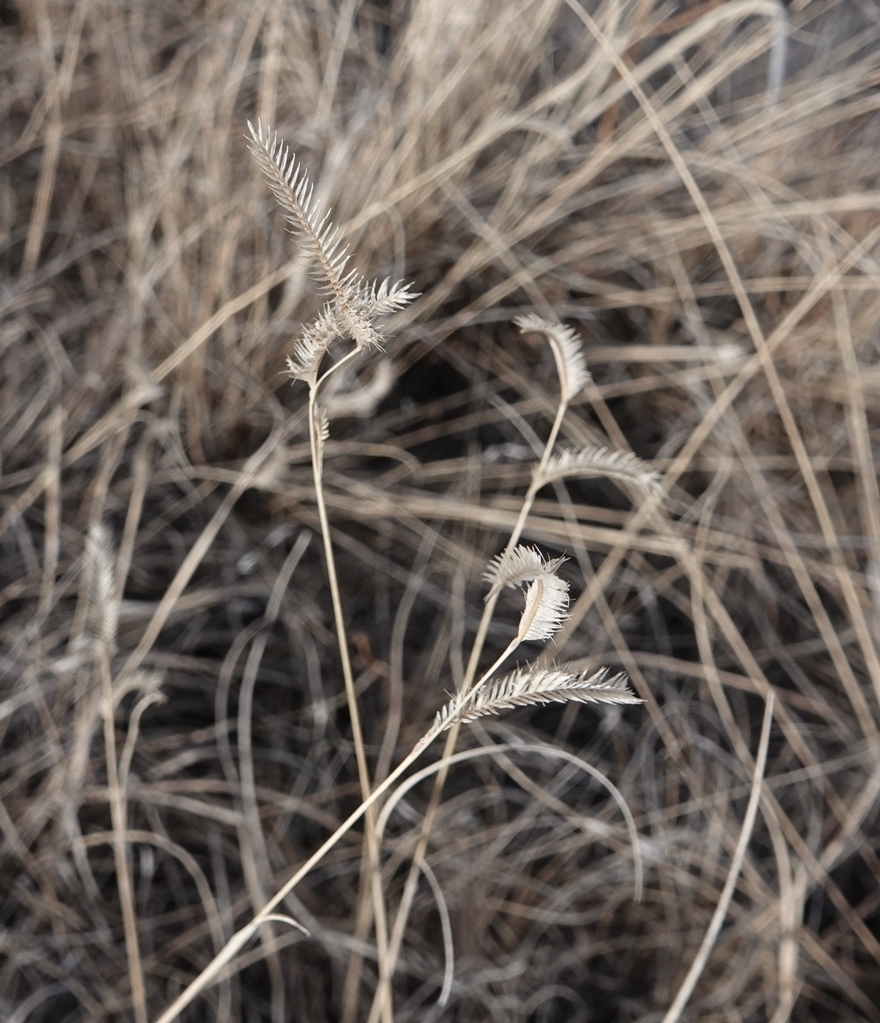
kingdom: Plantae
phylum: Tracheophyta
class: Liliopsida
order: Poales
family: Poaceae
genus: Bouteloua
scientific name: Bouteloua gracilis
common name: Blue grama
